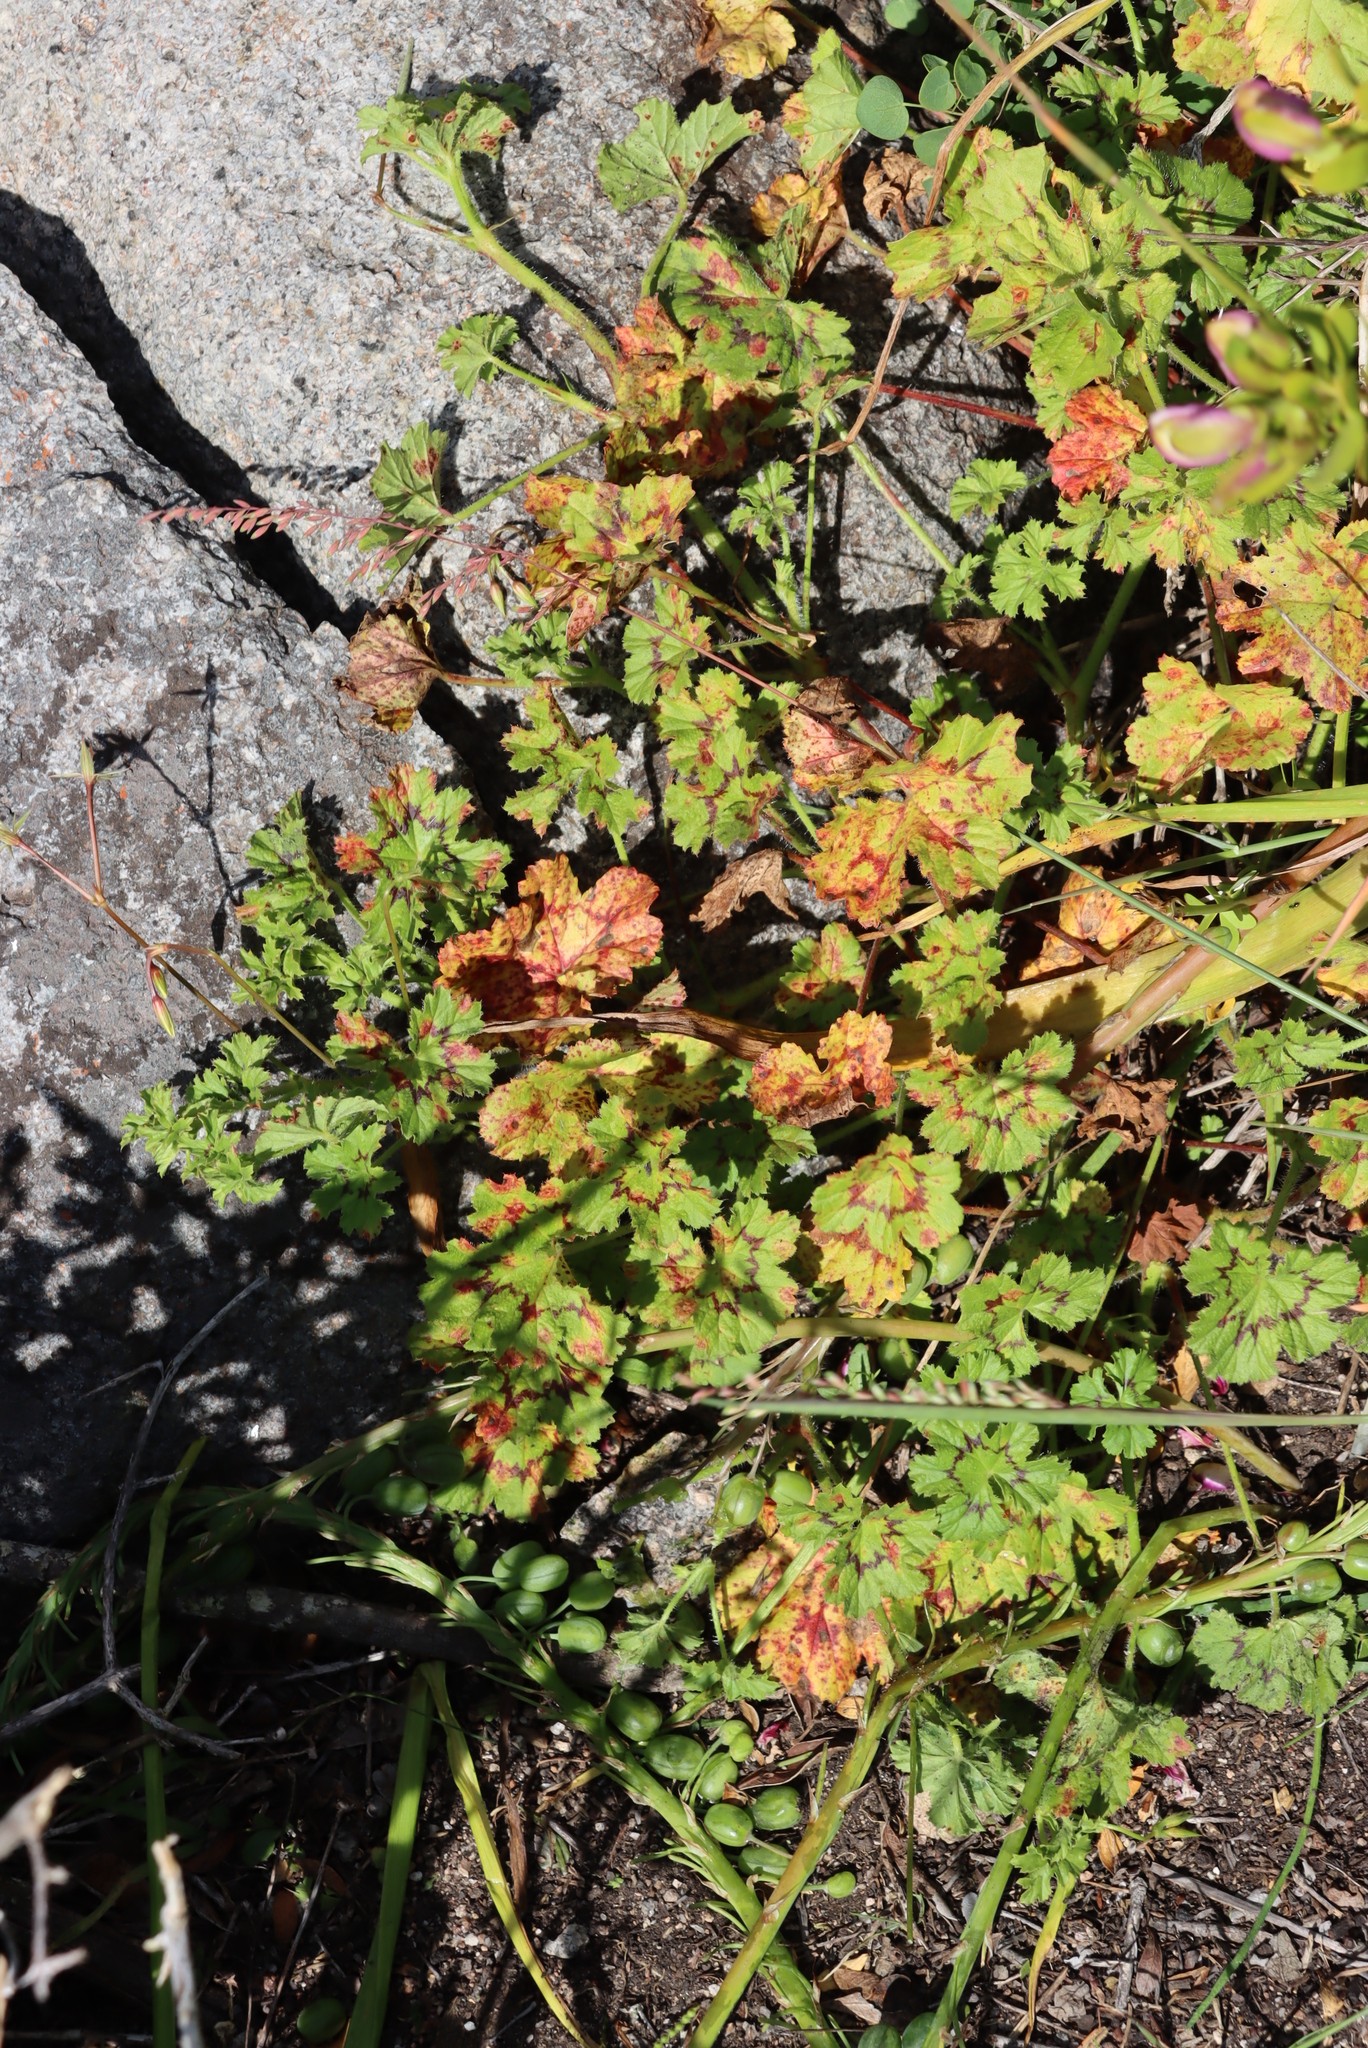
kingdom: Plantae
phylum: Tracheophyta
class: Magnoliopsida
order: Geraniales
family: Geraniaceae
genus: Pelargonium
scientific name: Pelargonium elongatum
